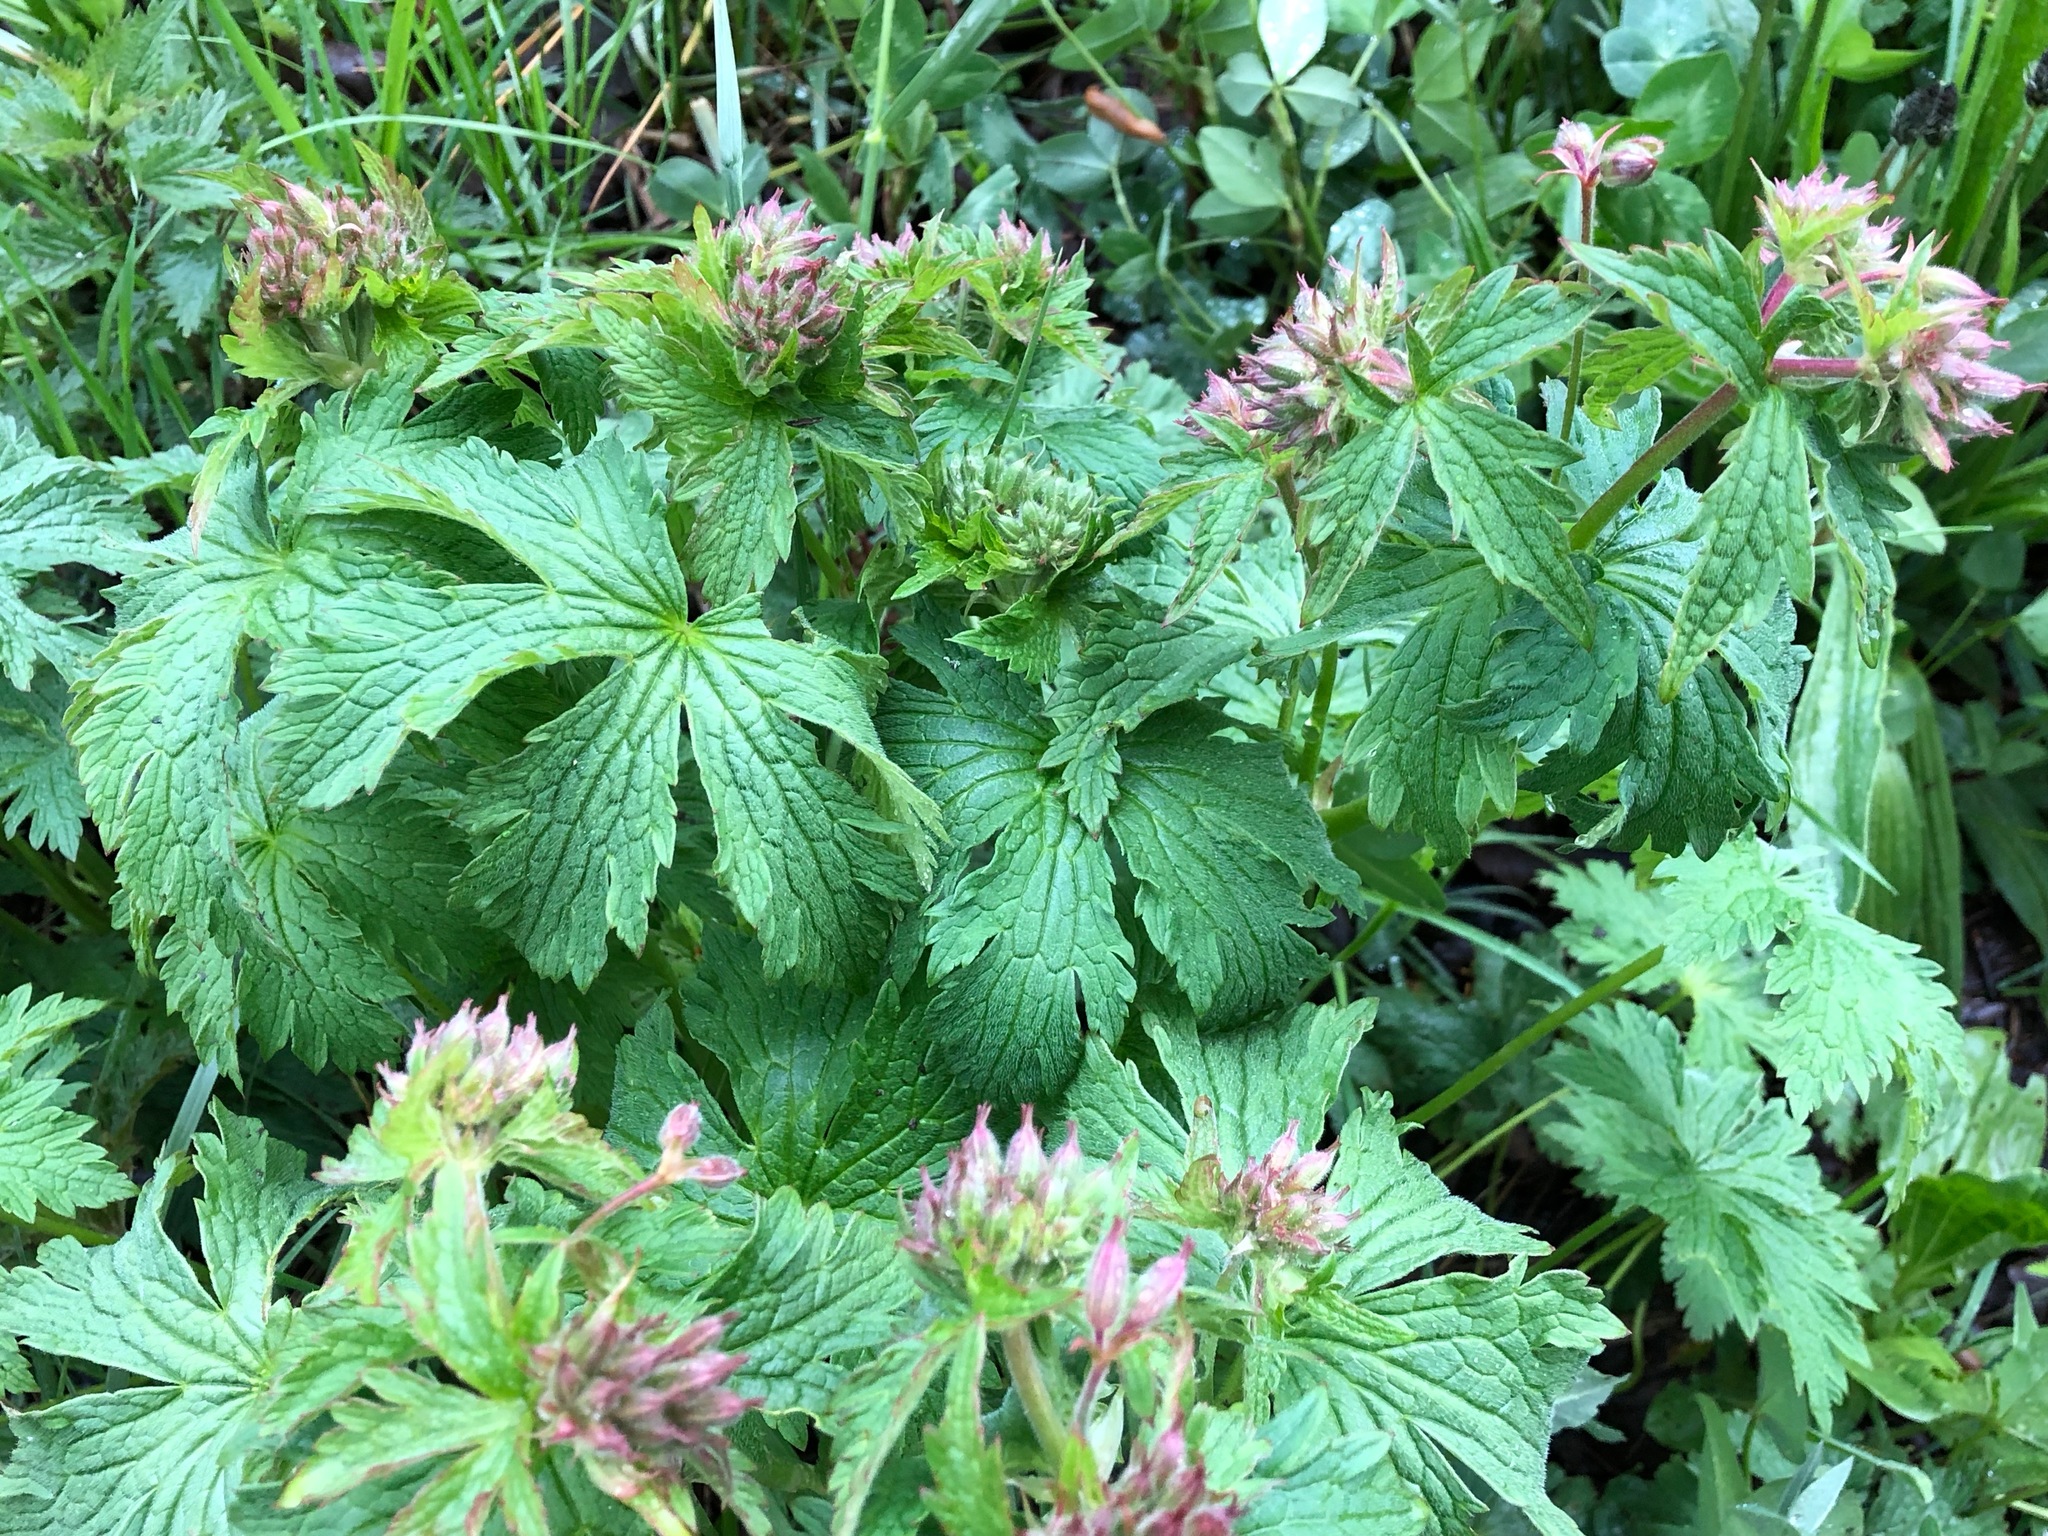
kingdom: Plantae
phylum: Tracheophyta
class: Magnoliopsida
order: Geraniales
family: Geraniaceae
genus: Geranium
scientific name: Geranium sylvaticum
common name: Wood crane's-bill
